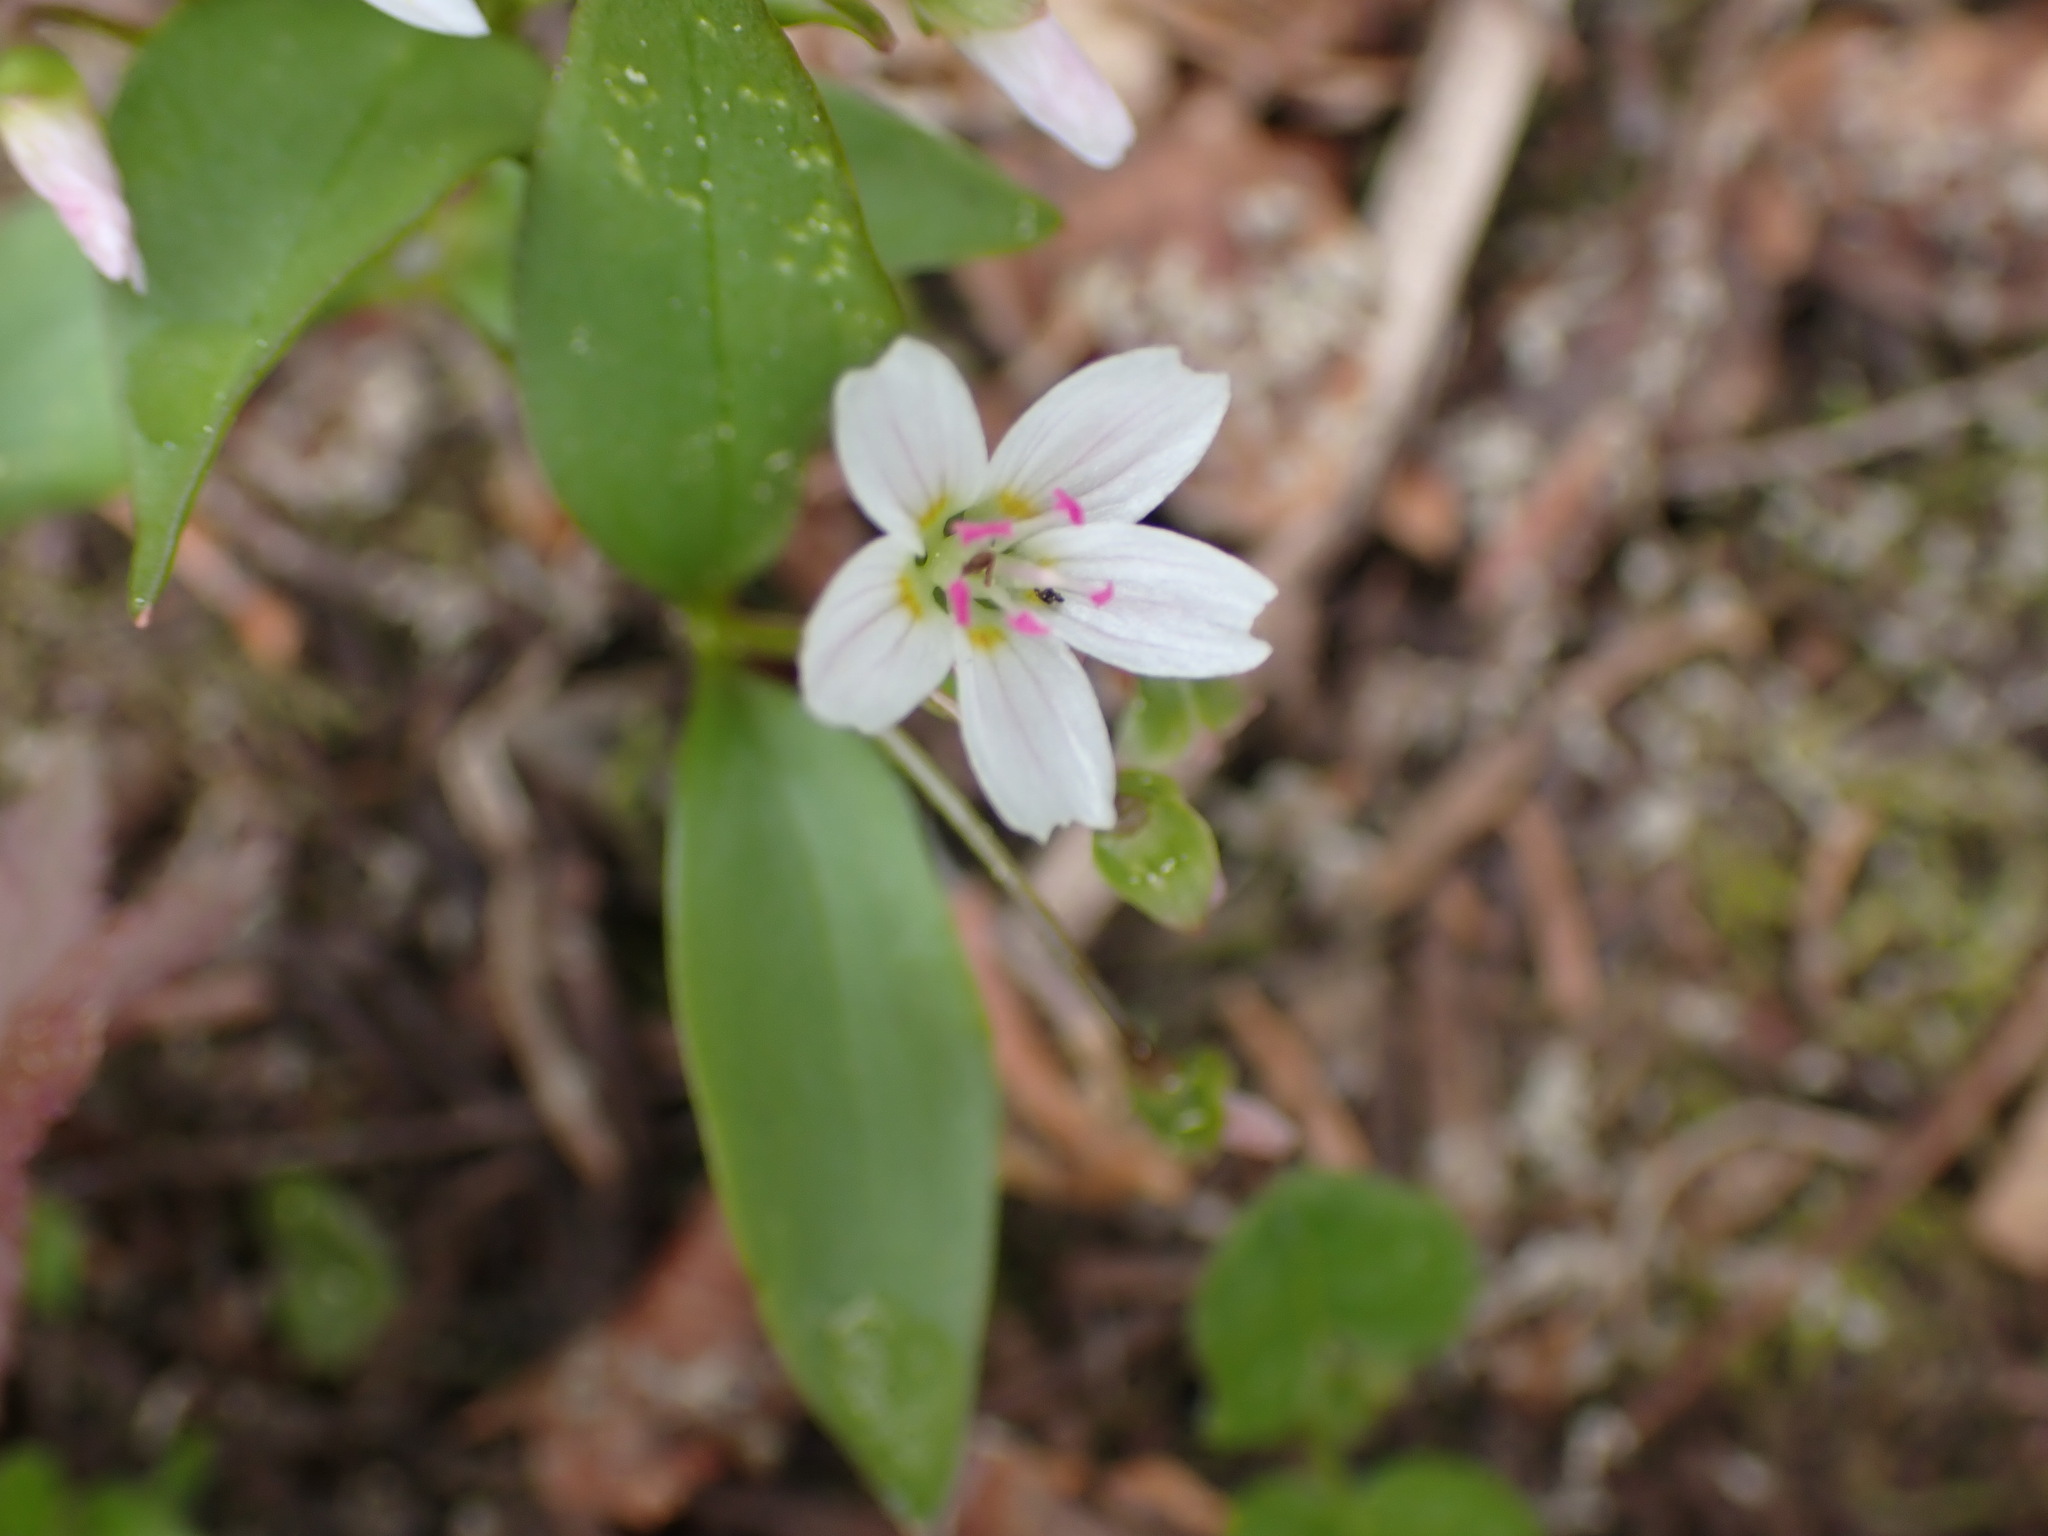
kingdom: Plantae
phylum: Tracheophyta
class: Magnoliopsida
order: Caryophyllales
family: Montiaceae
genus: Claytonia
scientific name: Claytonia lanceolata
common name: Western spring-beauty
